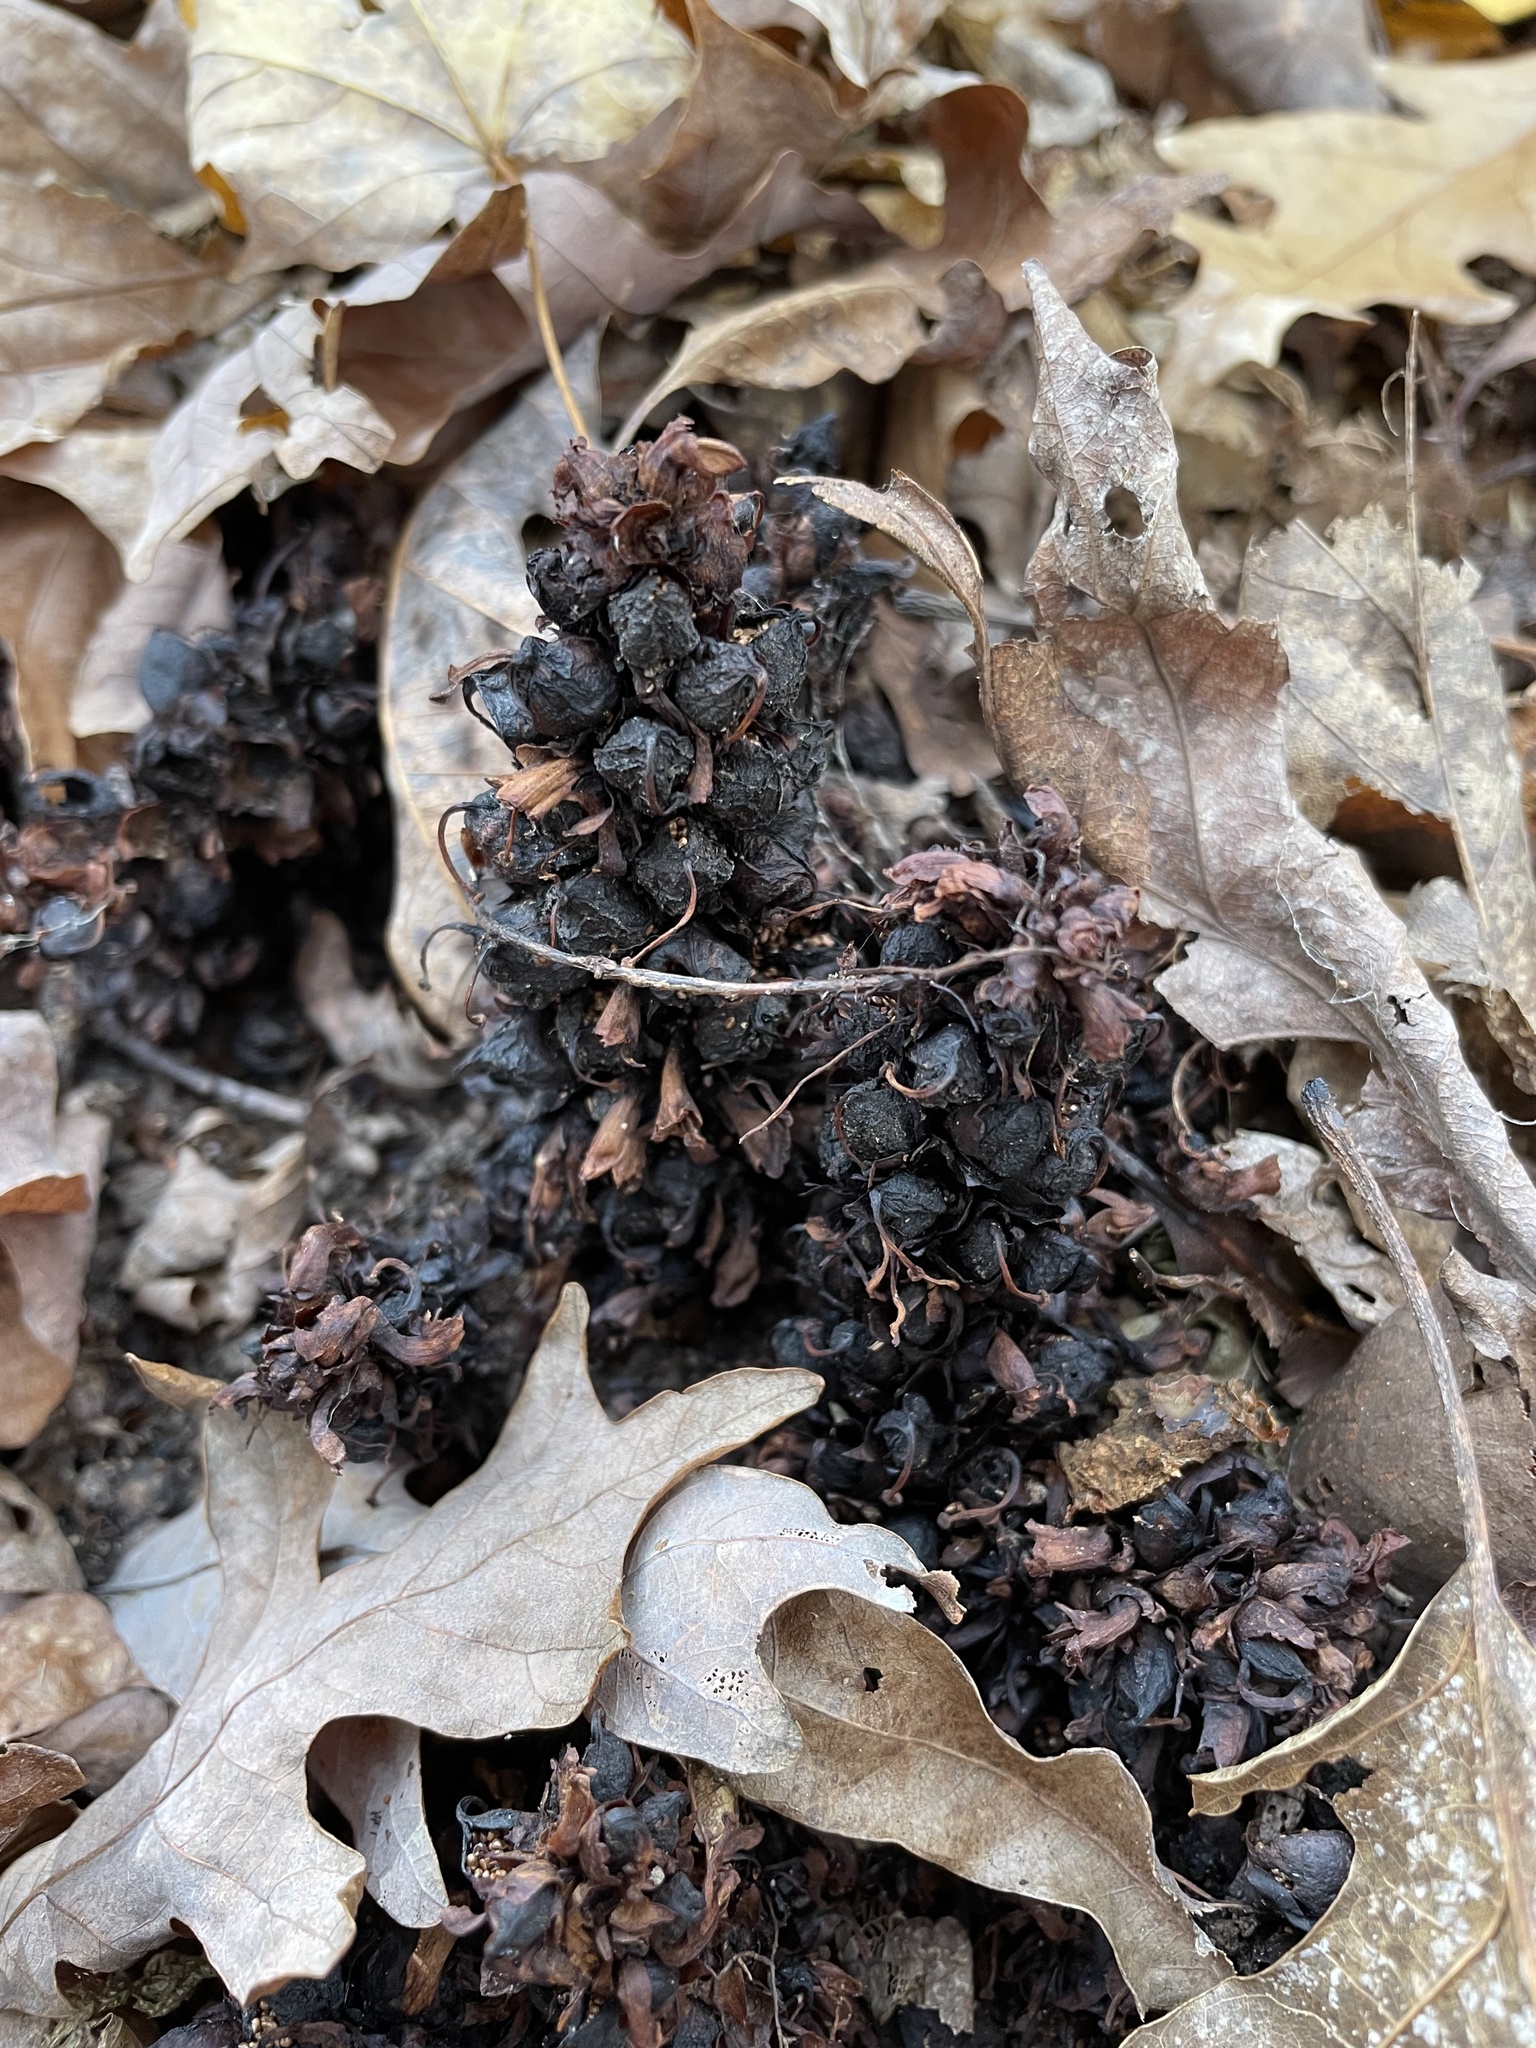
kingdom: Plantae
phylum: Tracheophyta
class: Magnoliopsida
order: Lamiales
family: Orobanchaceae
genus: Conopholis
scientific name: Conopholis americana
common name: American cancer-root
